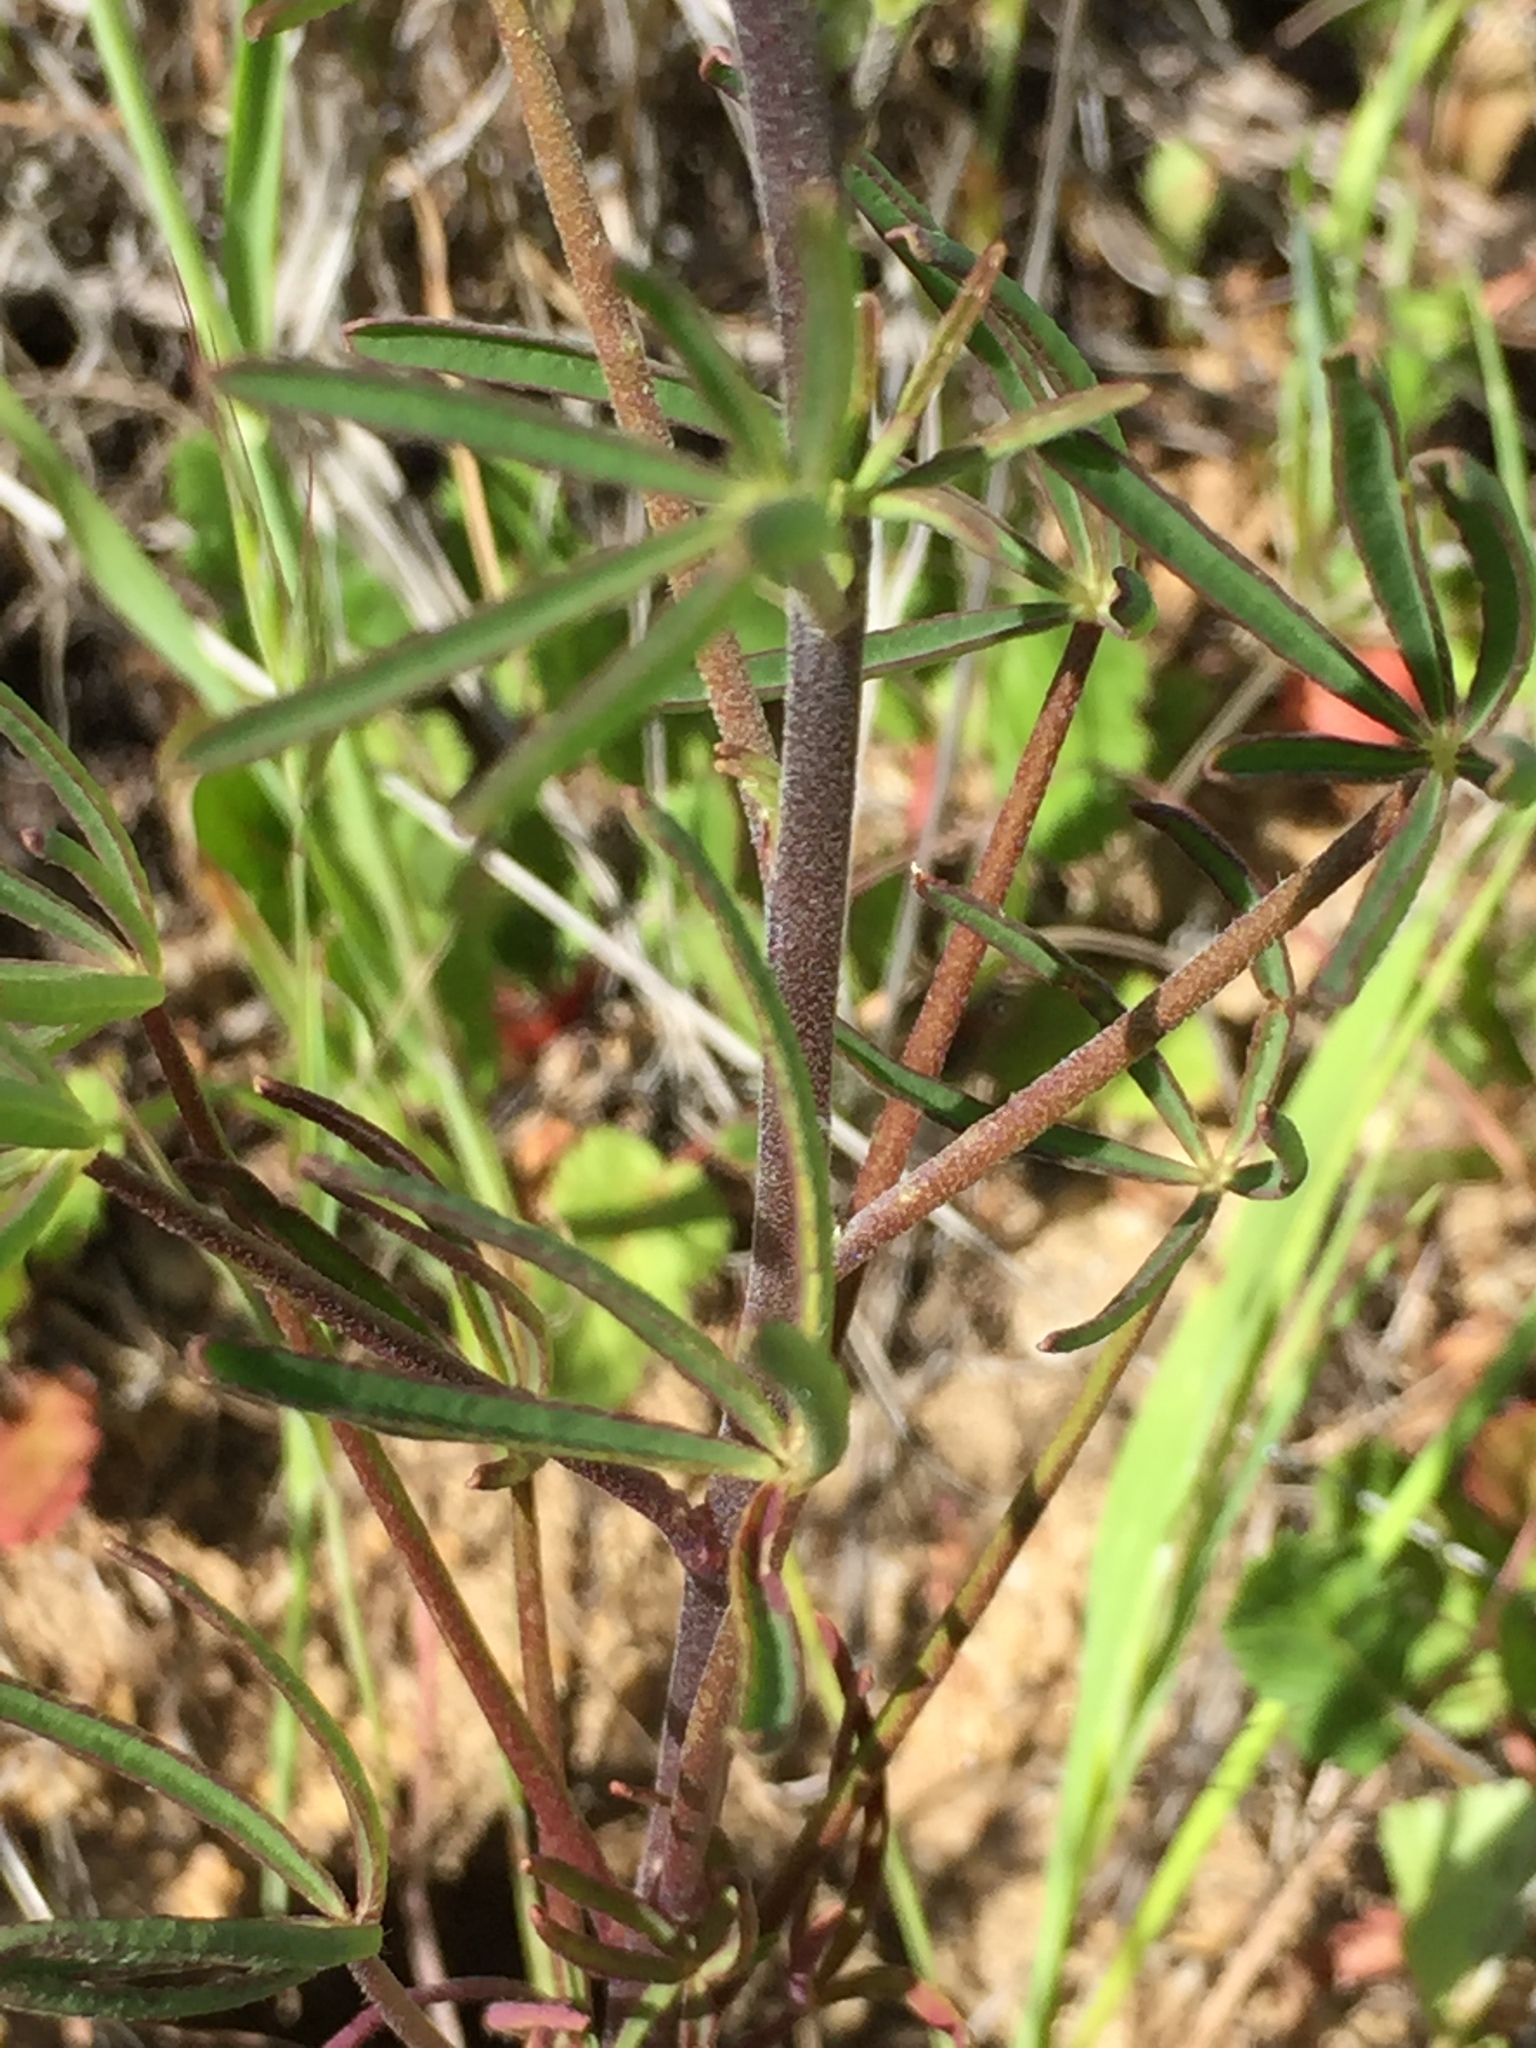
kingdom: Plantae
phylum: Tracheophyta
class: Magnoliopsida
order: Fabales
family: Fabaceae
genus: Lupinus
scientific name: Lupinus truncatus
